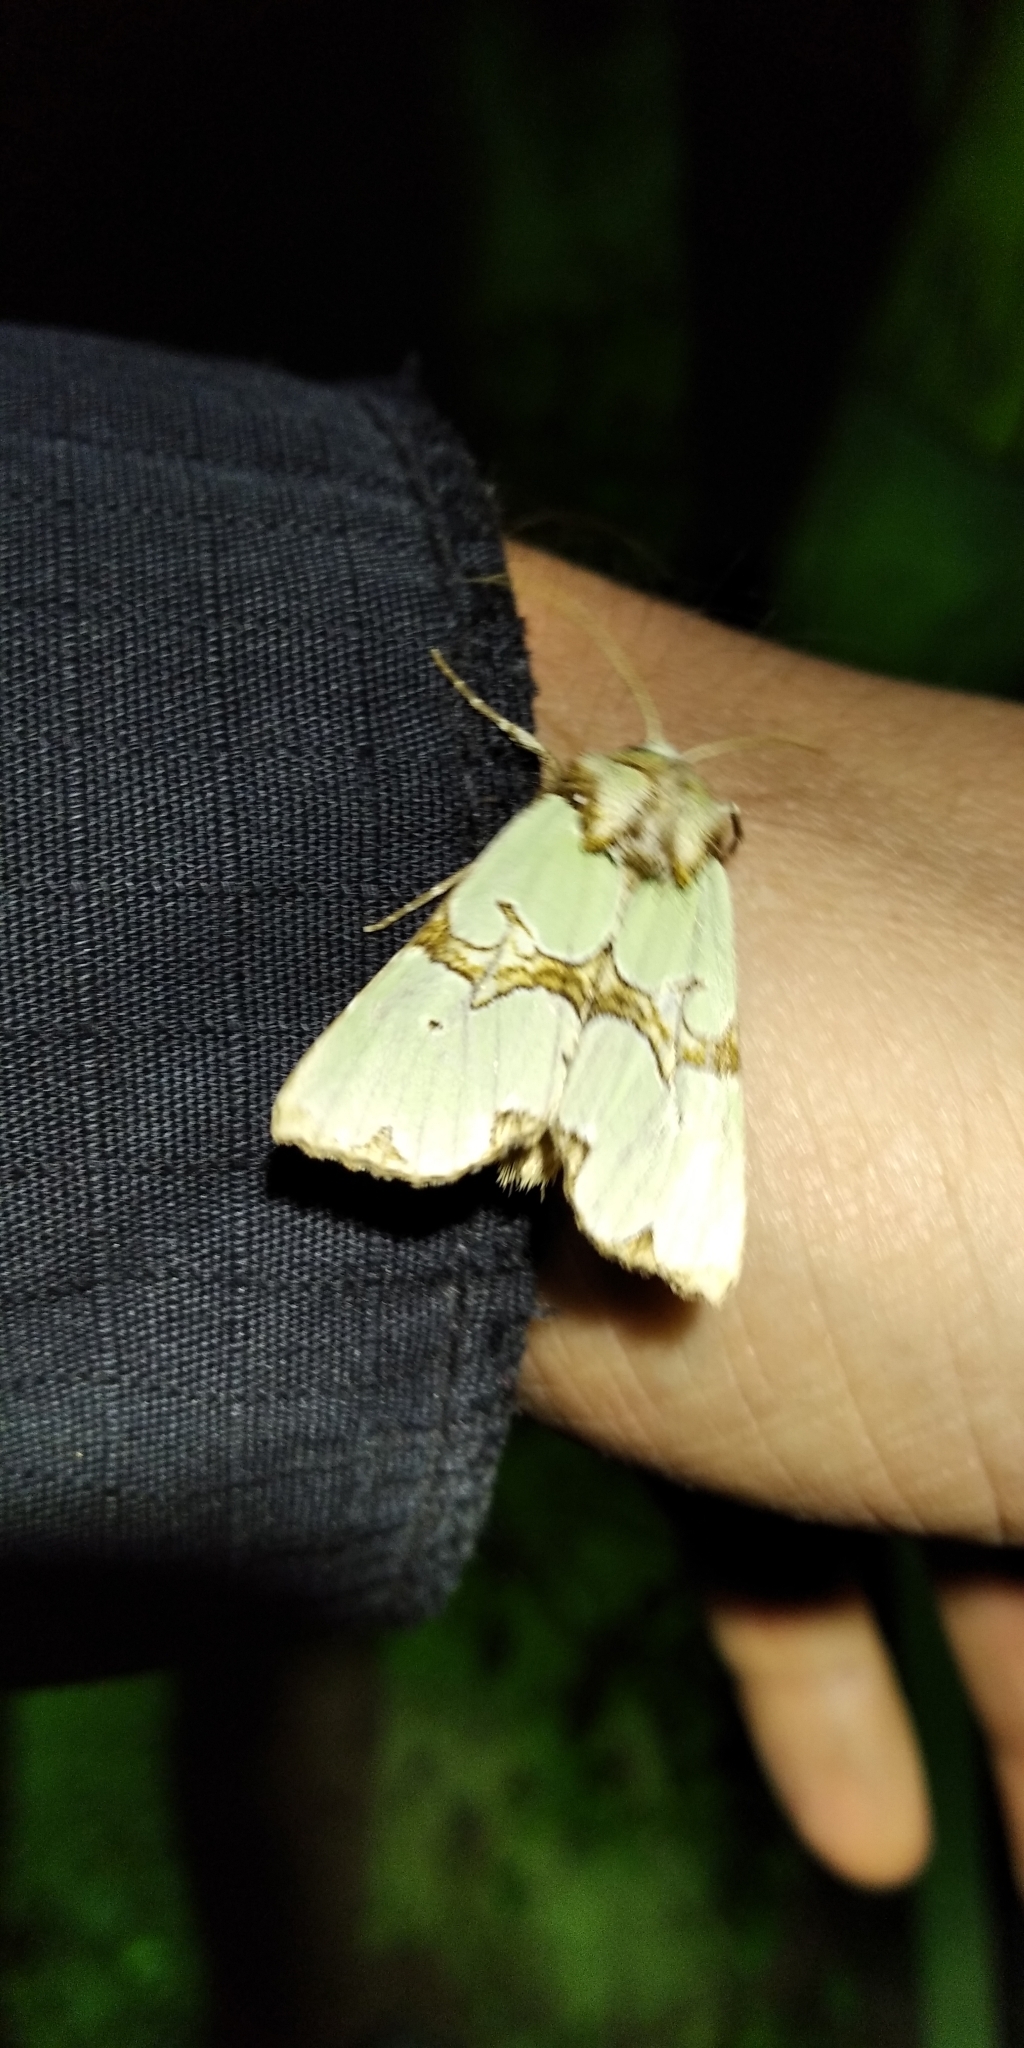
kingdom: Animalia
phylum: Arthropoda
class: Insecta
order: Lepidoptera
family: Noctuidae
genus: Staurophora
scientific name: Staurophora celsia
